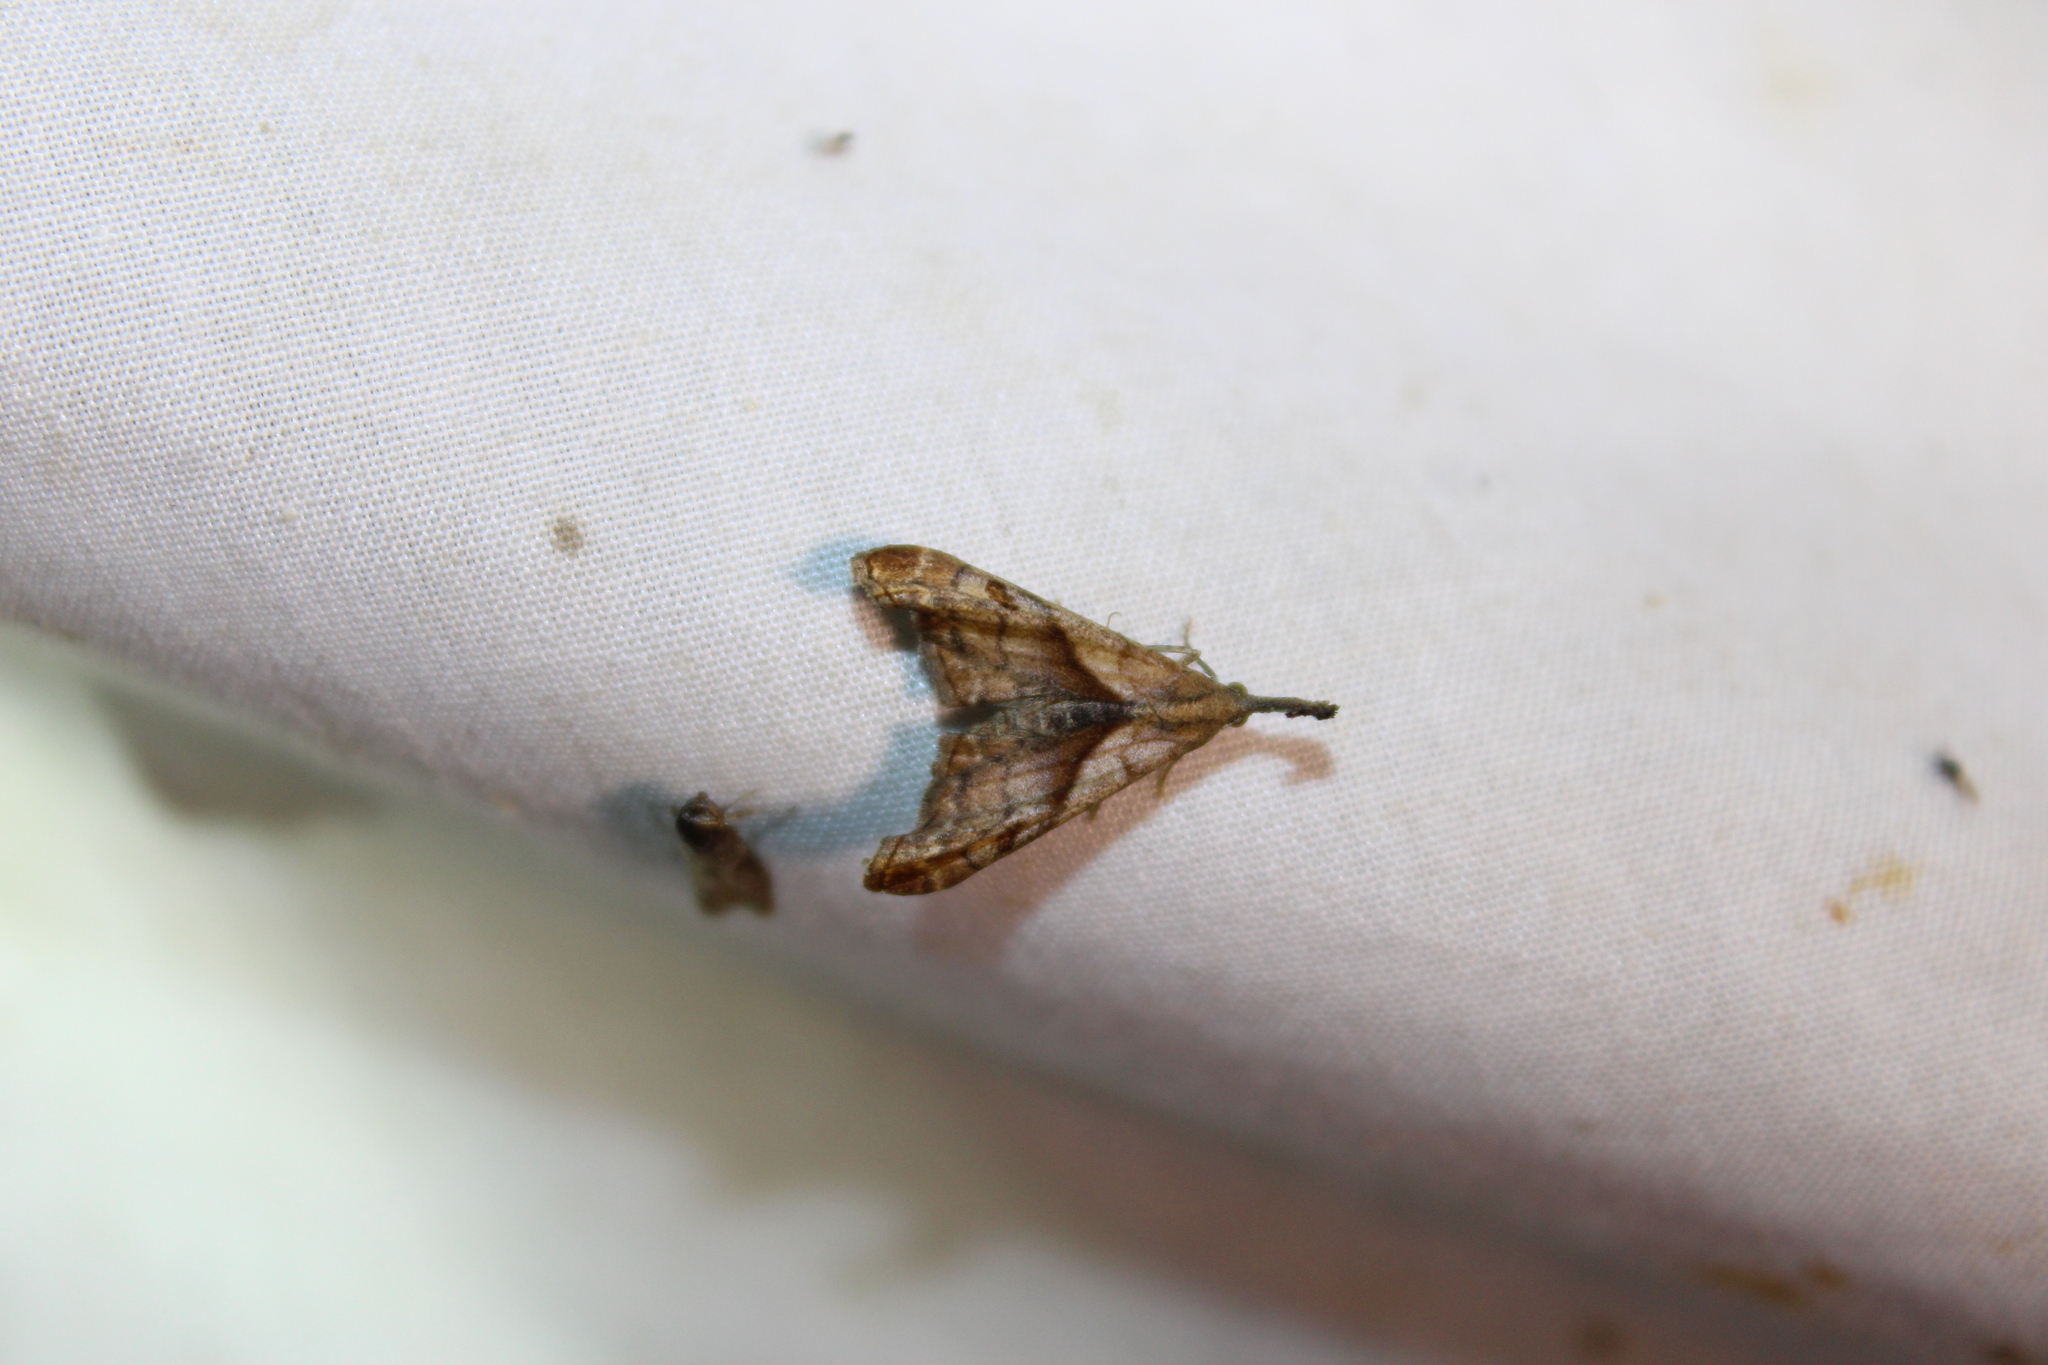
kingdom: Animalia
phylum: Arthropoda
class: Insecta
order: Lepidoptera
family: Erebidae
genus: Palthis
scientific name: Palthis angulalis
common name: Dark-spotted palthis moth
